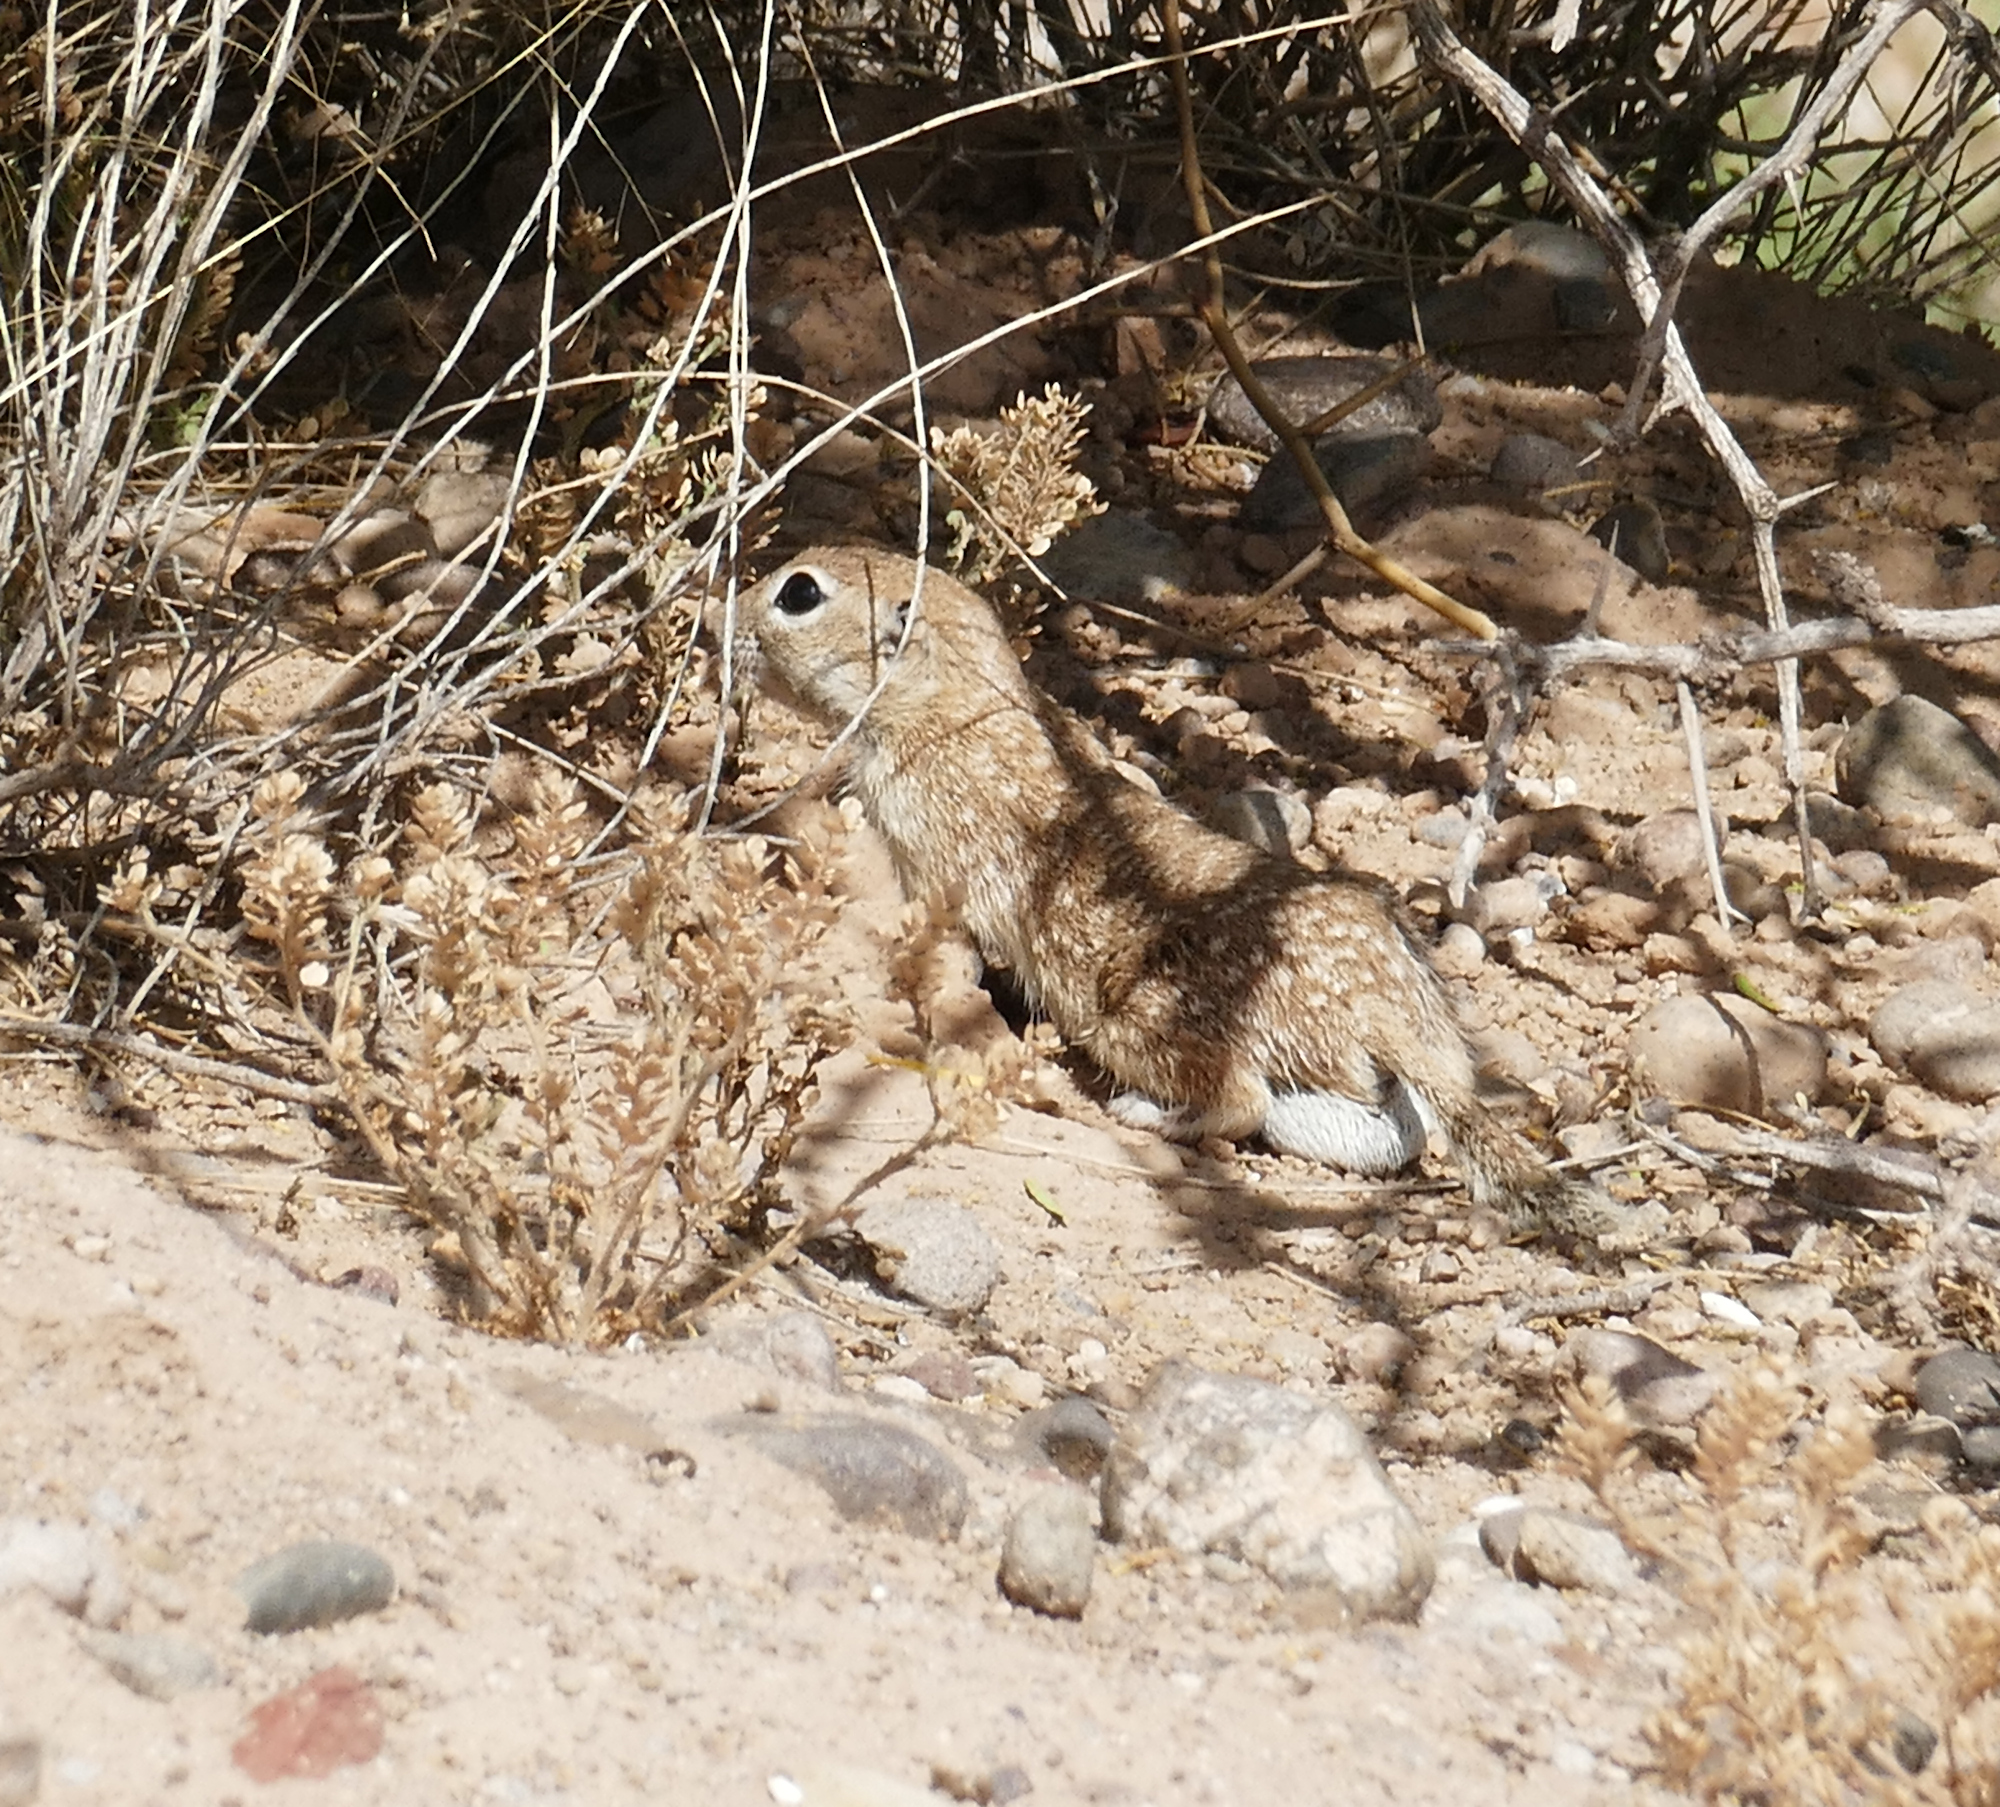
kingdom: Animalia
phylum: Chordata
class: Mammalia
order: Rodentia
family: Sciuridae
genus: Xerospermophilus
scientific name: Xerospermophilus spilosoma
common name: Spotted ground squirrel
